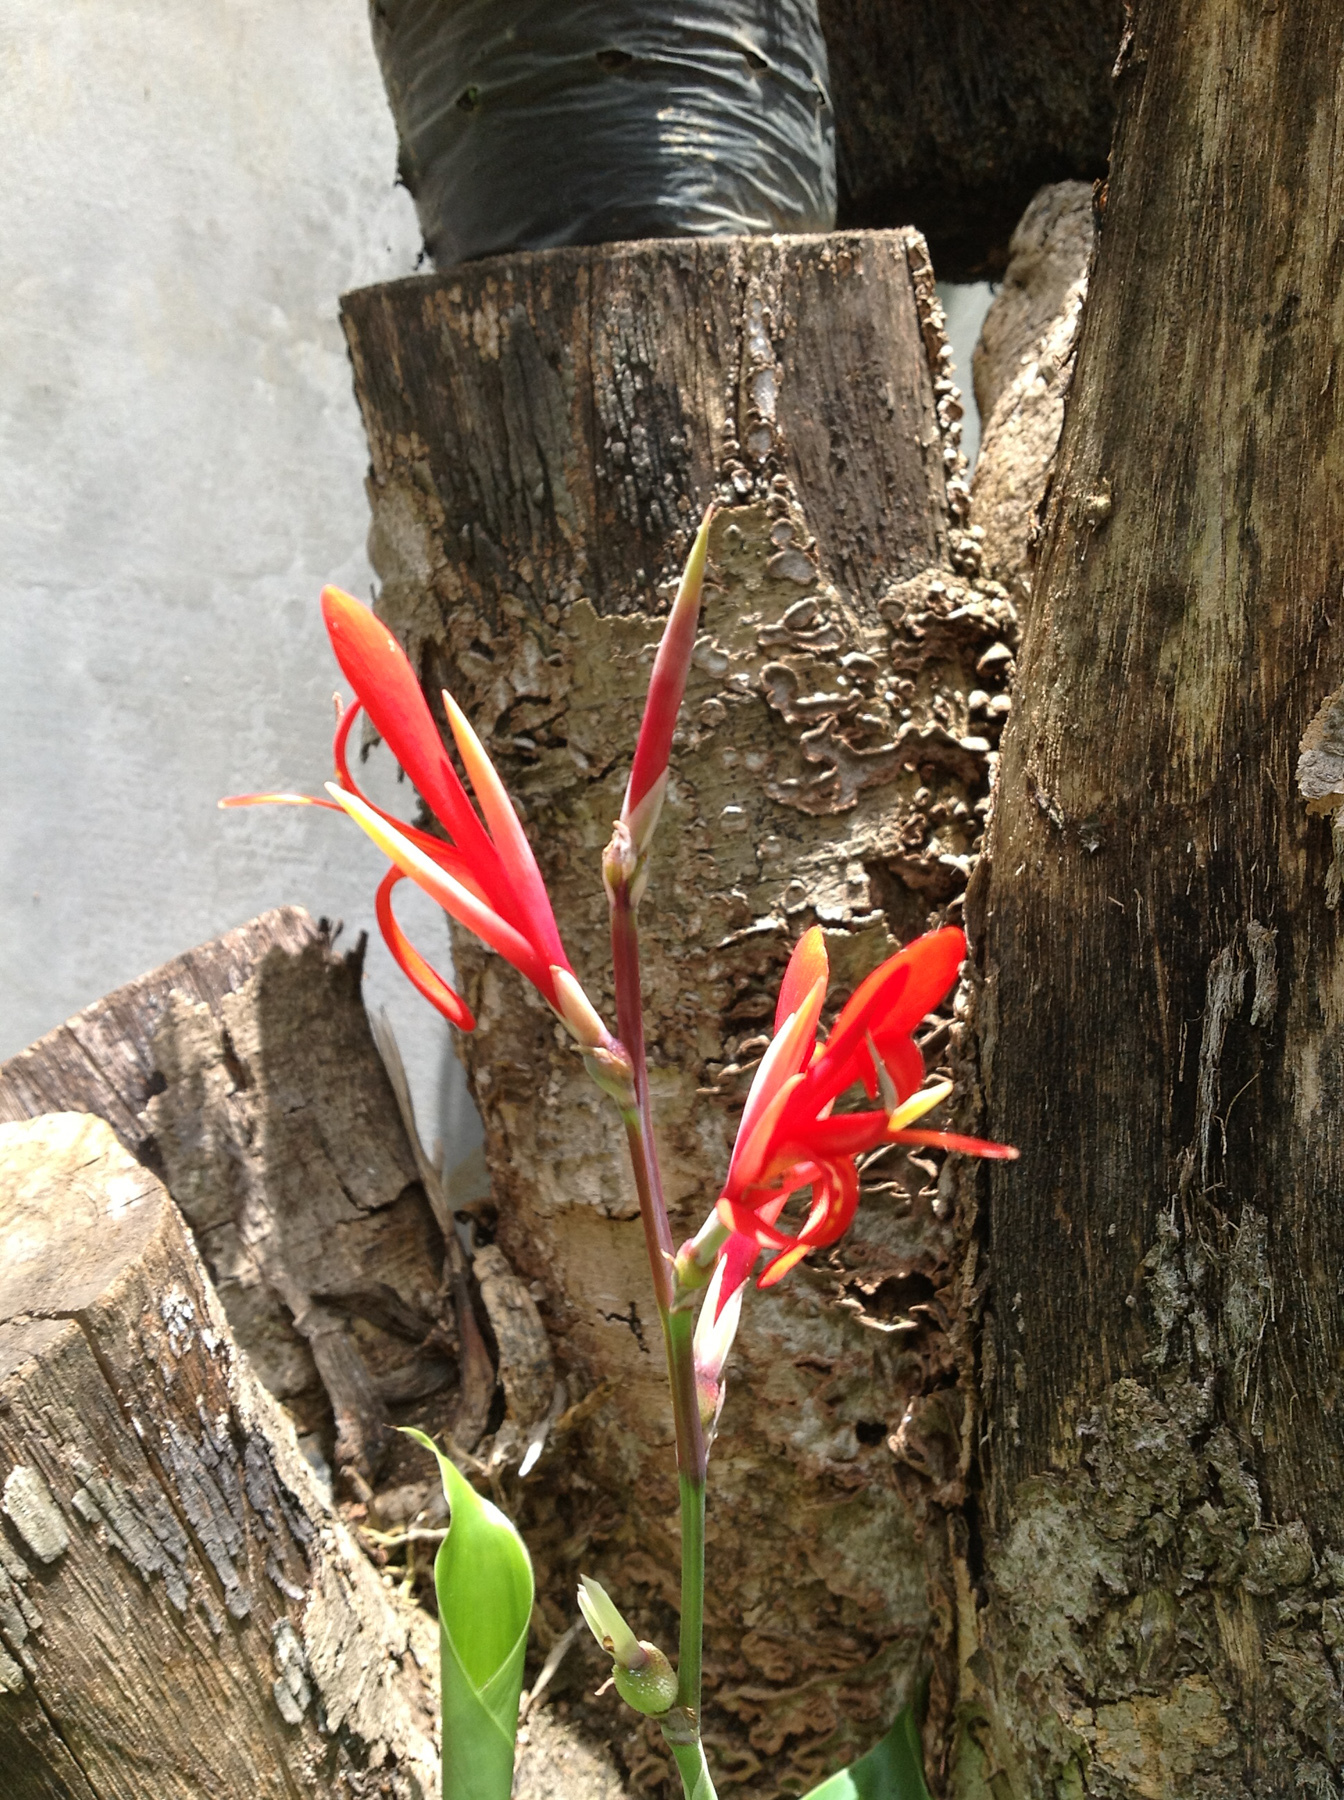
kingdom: Plantae
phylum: Tracheophyta
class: Liliopsida
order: Zingiberales
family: Cannaceae
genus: Canna
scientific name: Canna indica
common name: Indian shot
